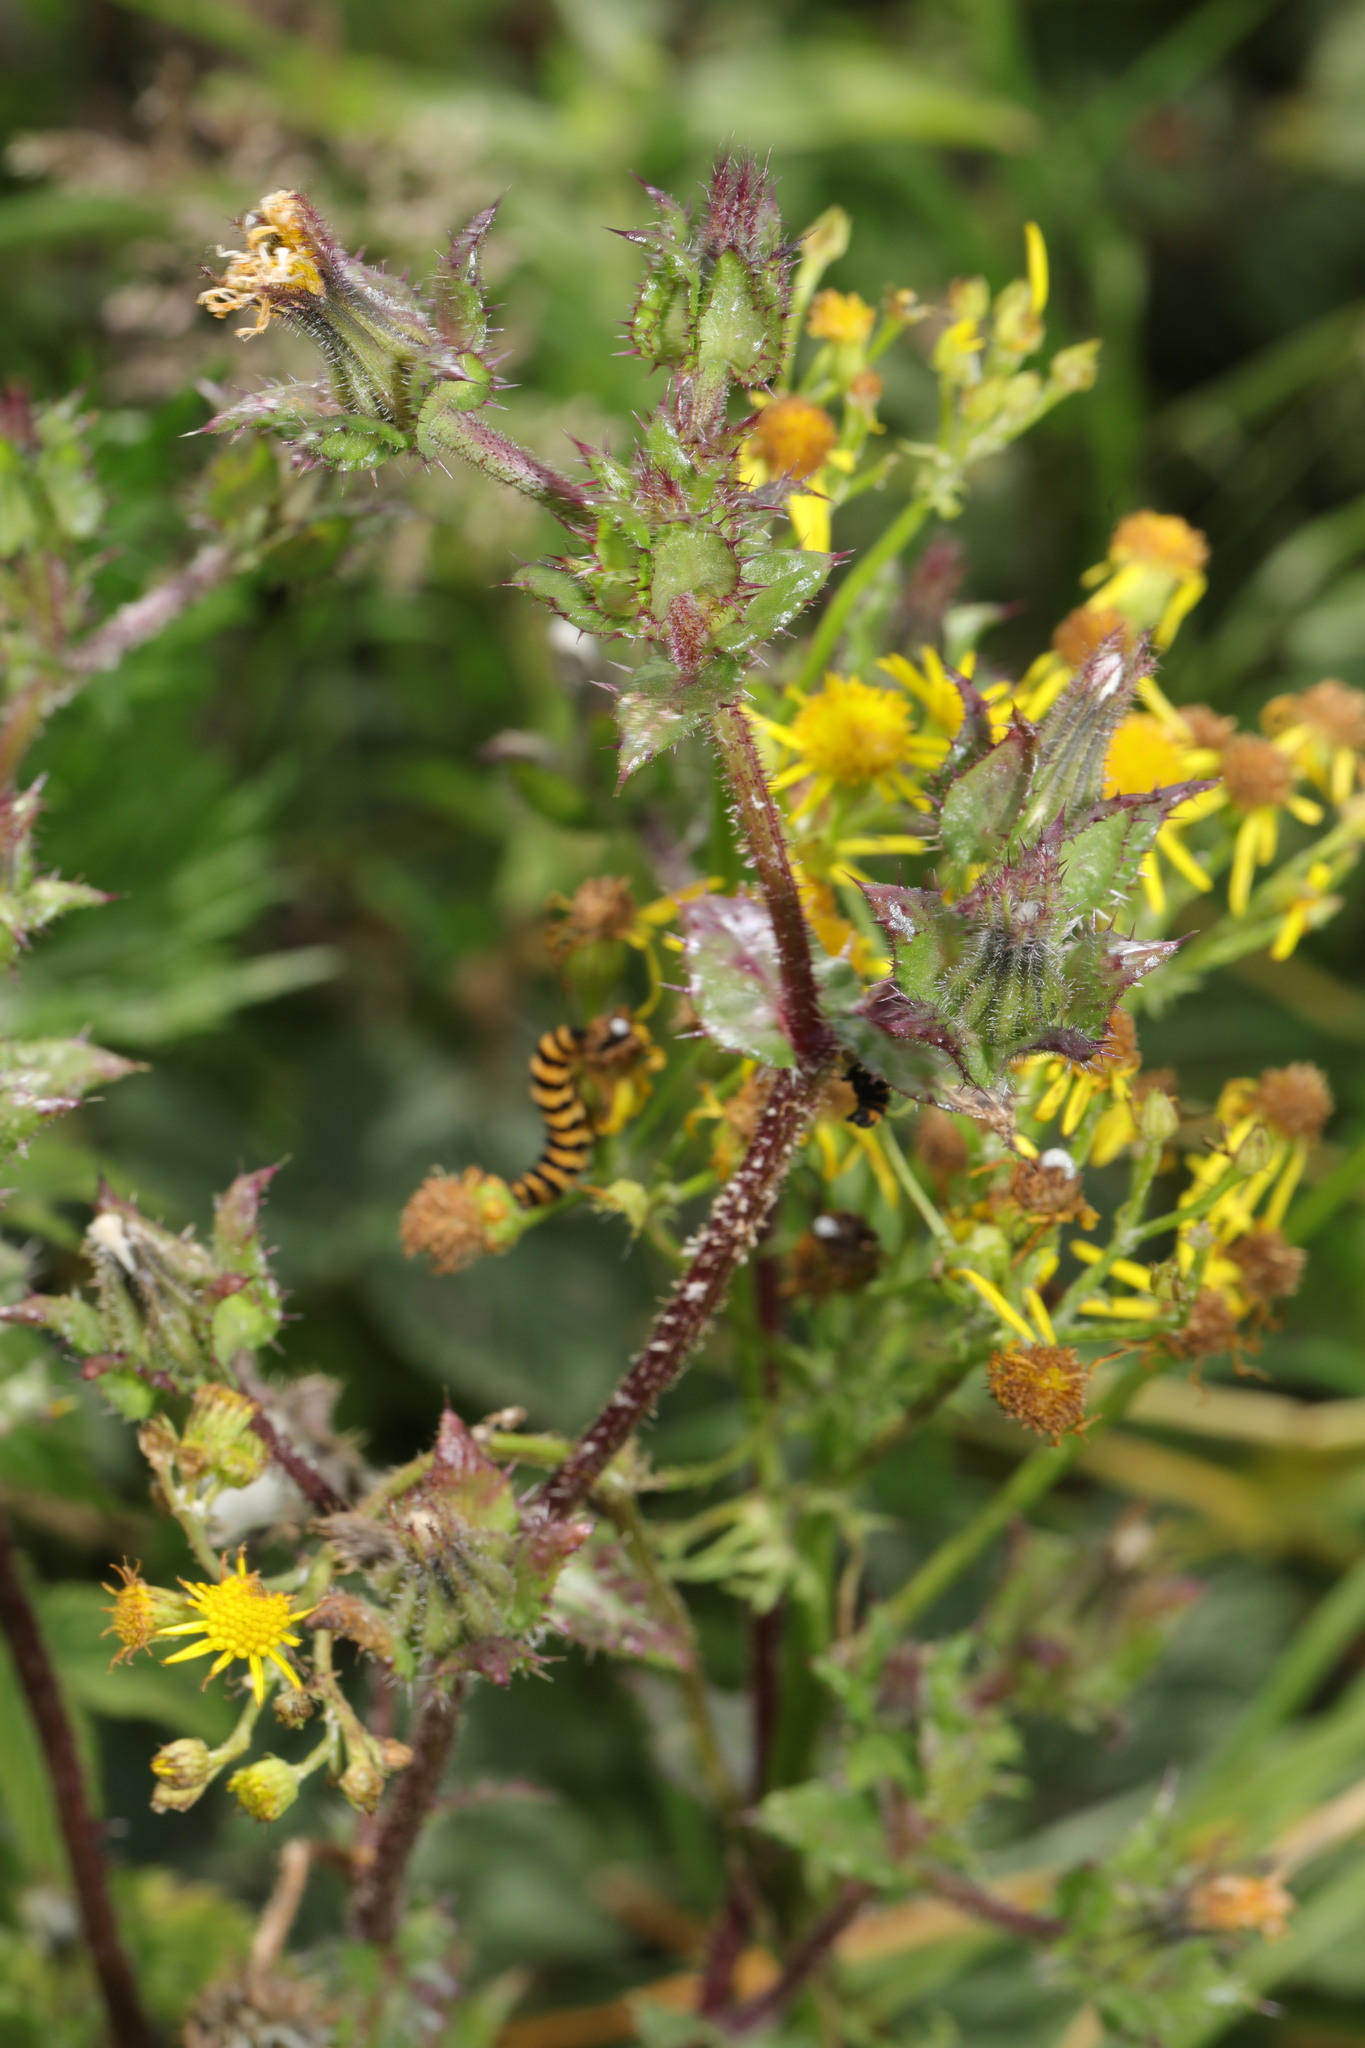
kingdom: Animalia
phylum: Arthropoda
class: Insecta
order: Lepidoptera
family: Erebidae
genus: Tyria
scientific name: Tyria jacobaeae
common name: Cinnabar
